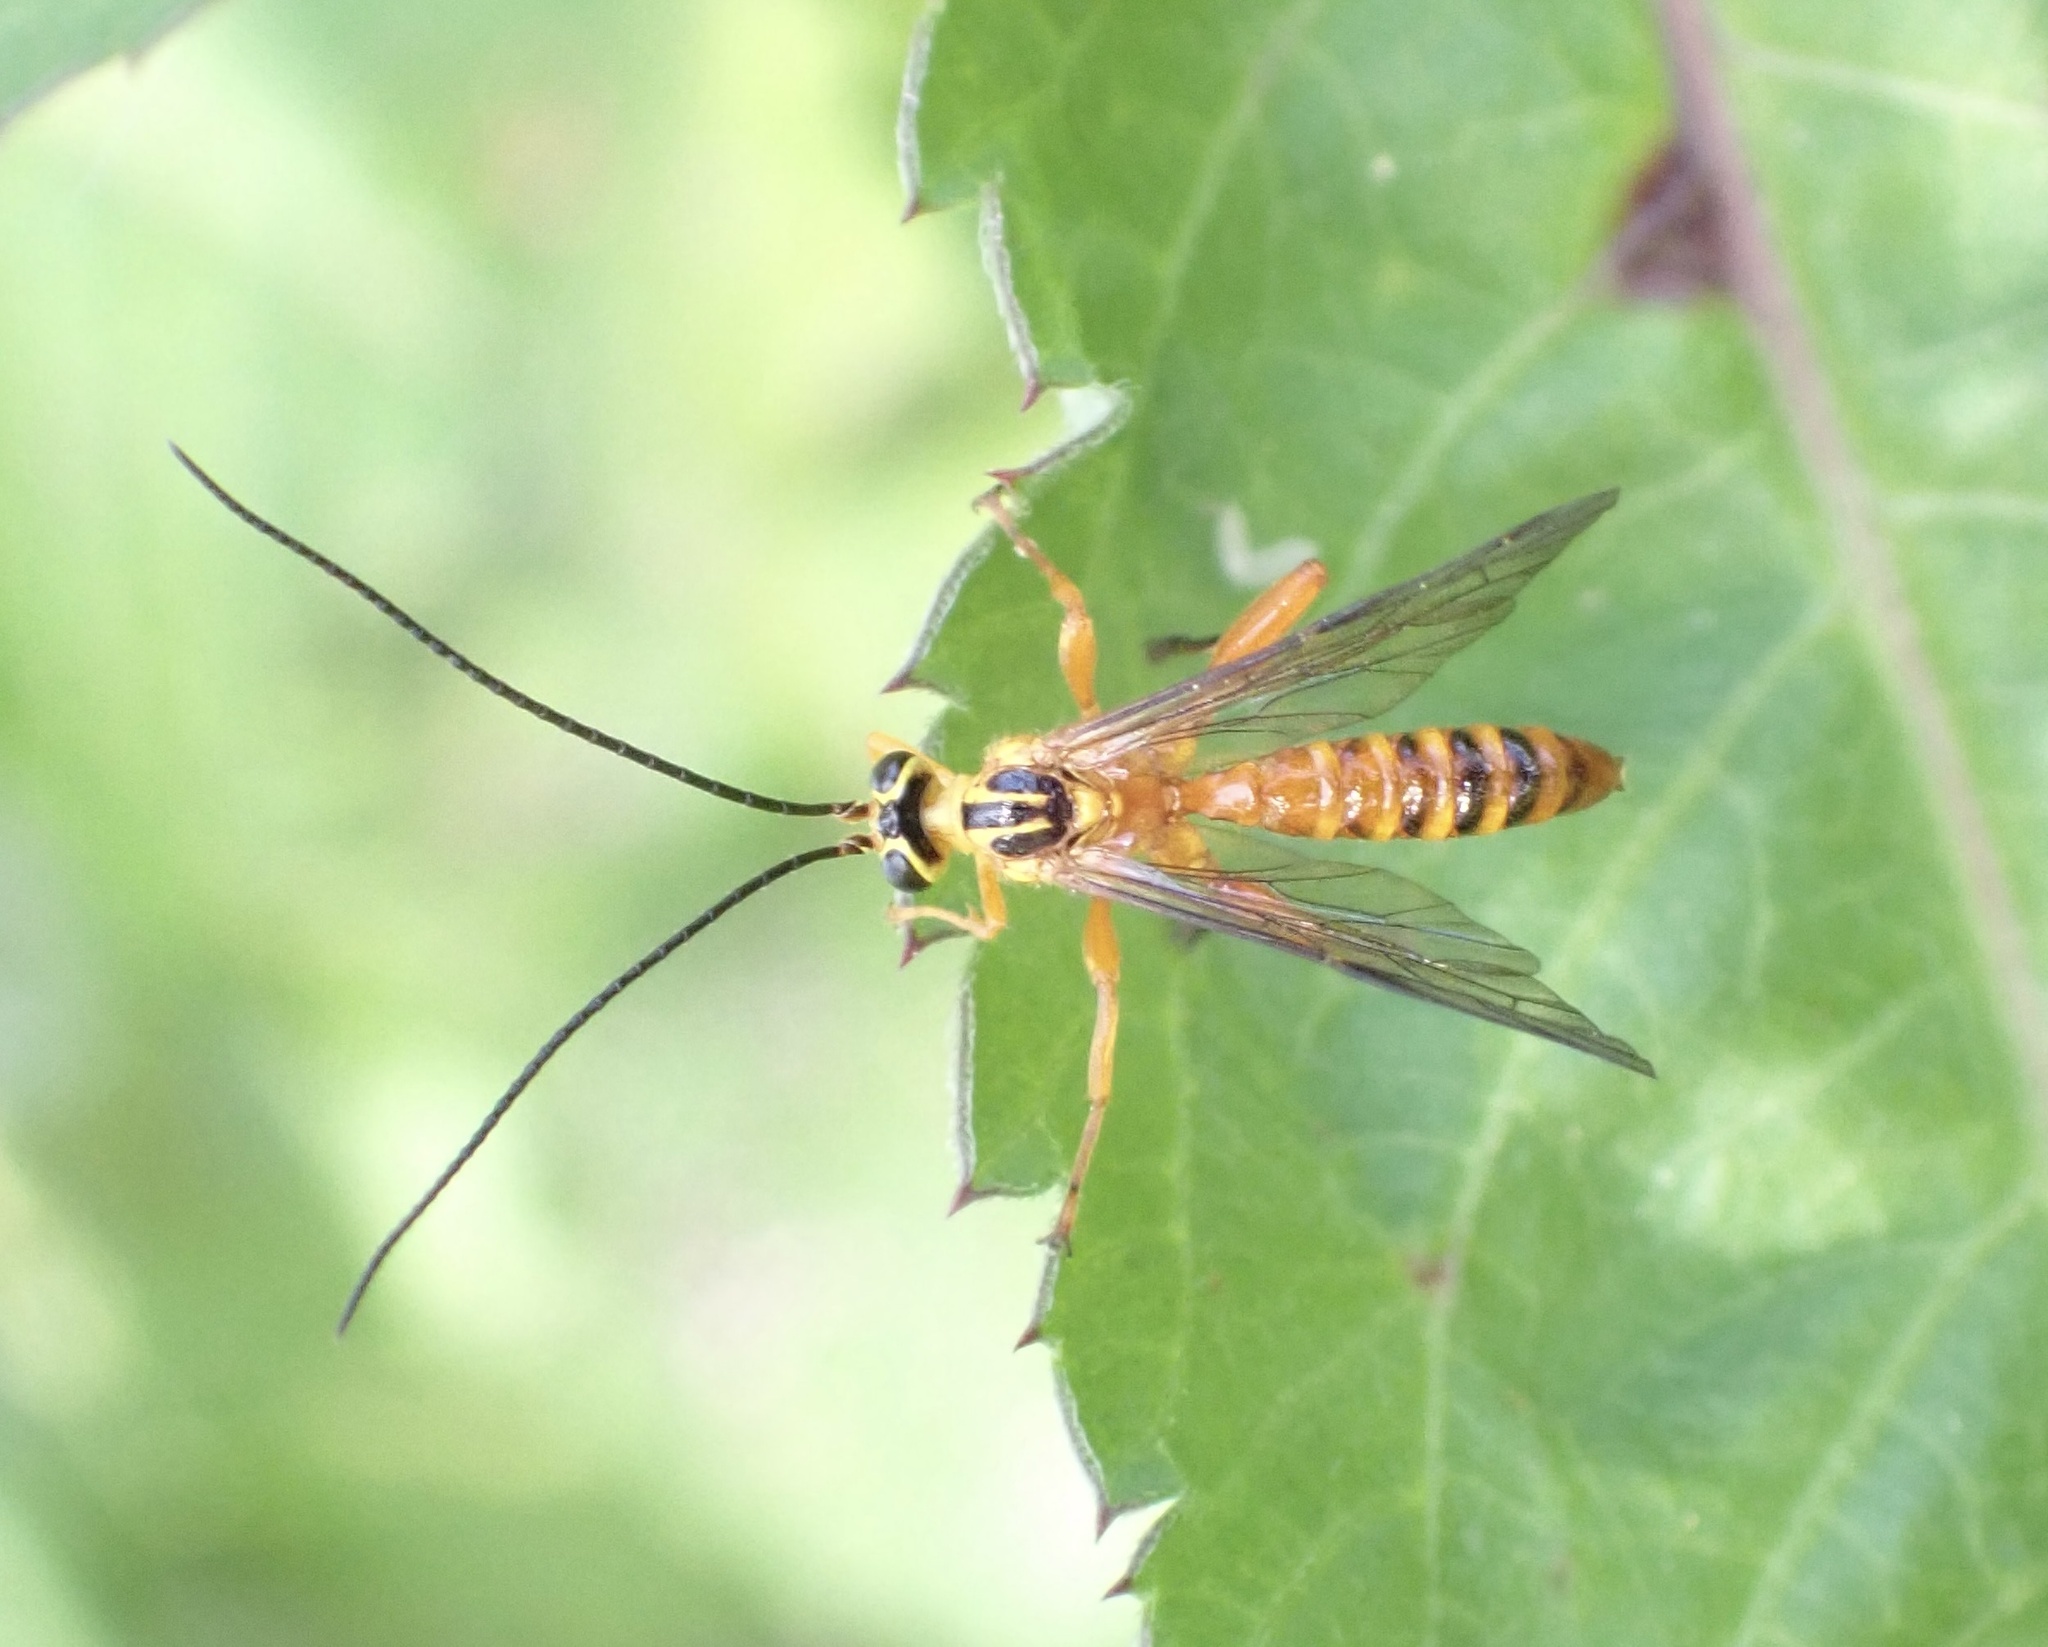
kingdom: Animalia
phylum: Arthropoda
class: Insecta
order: Hymenoptera
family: Ichneumonidae
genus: Echthromorpha
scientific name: Echthromorpha agrestoria
